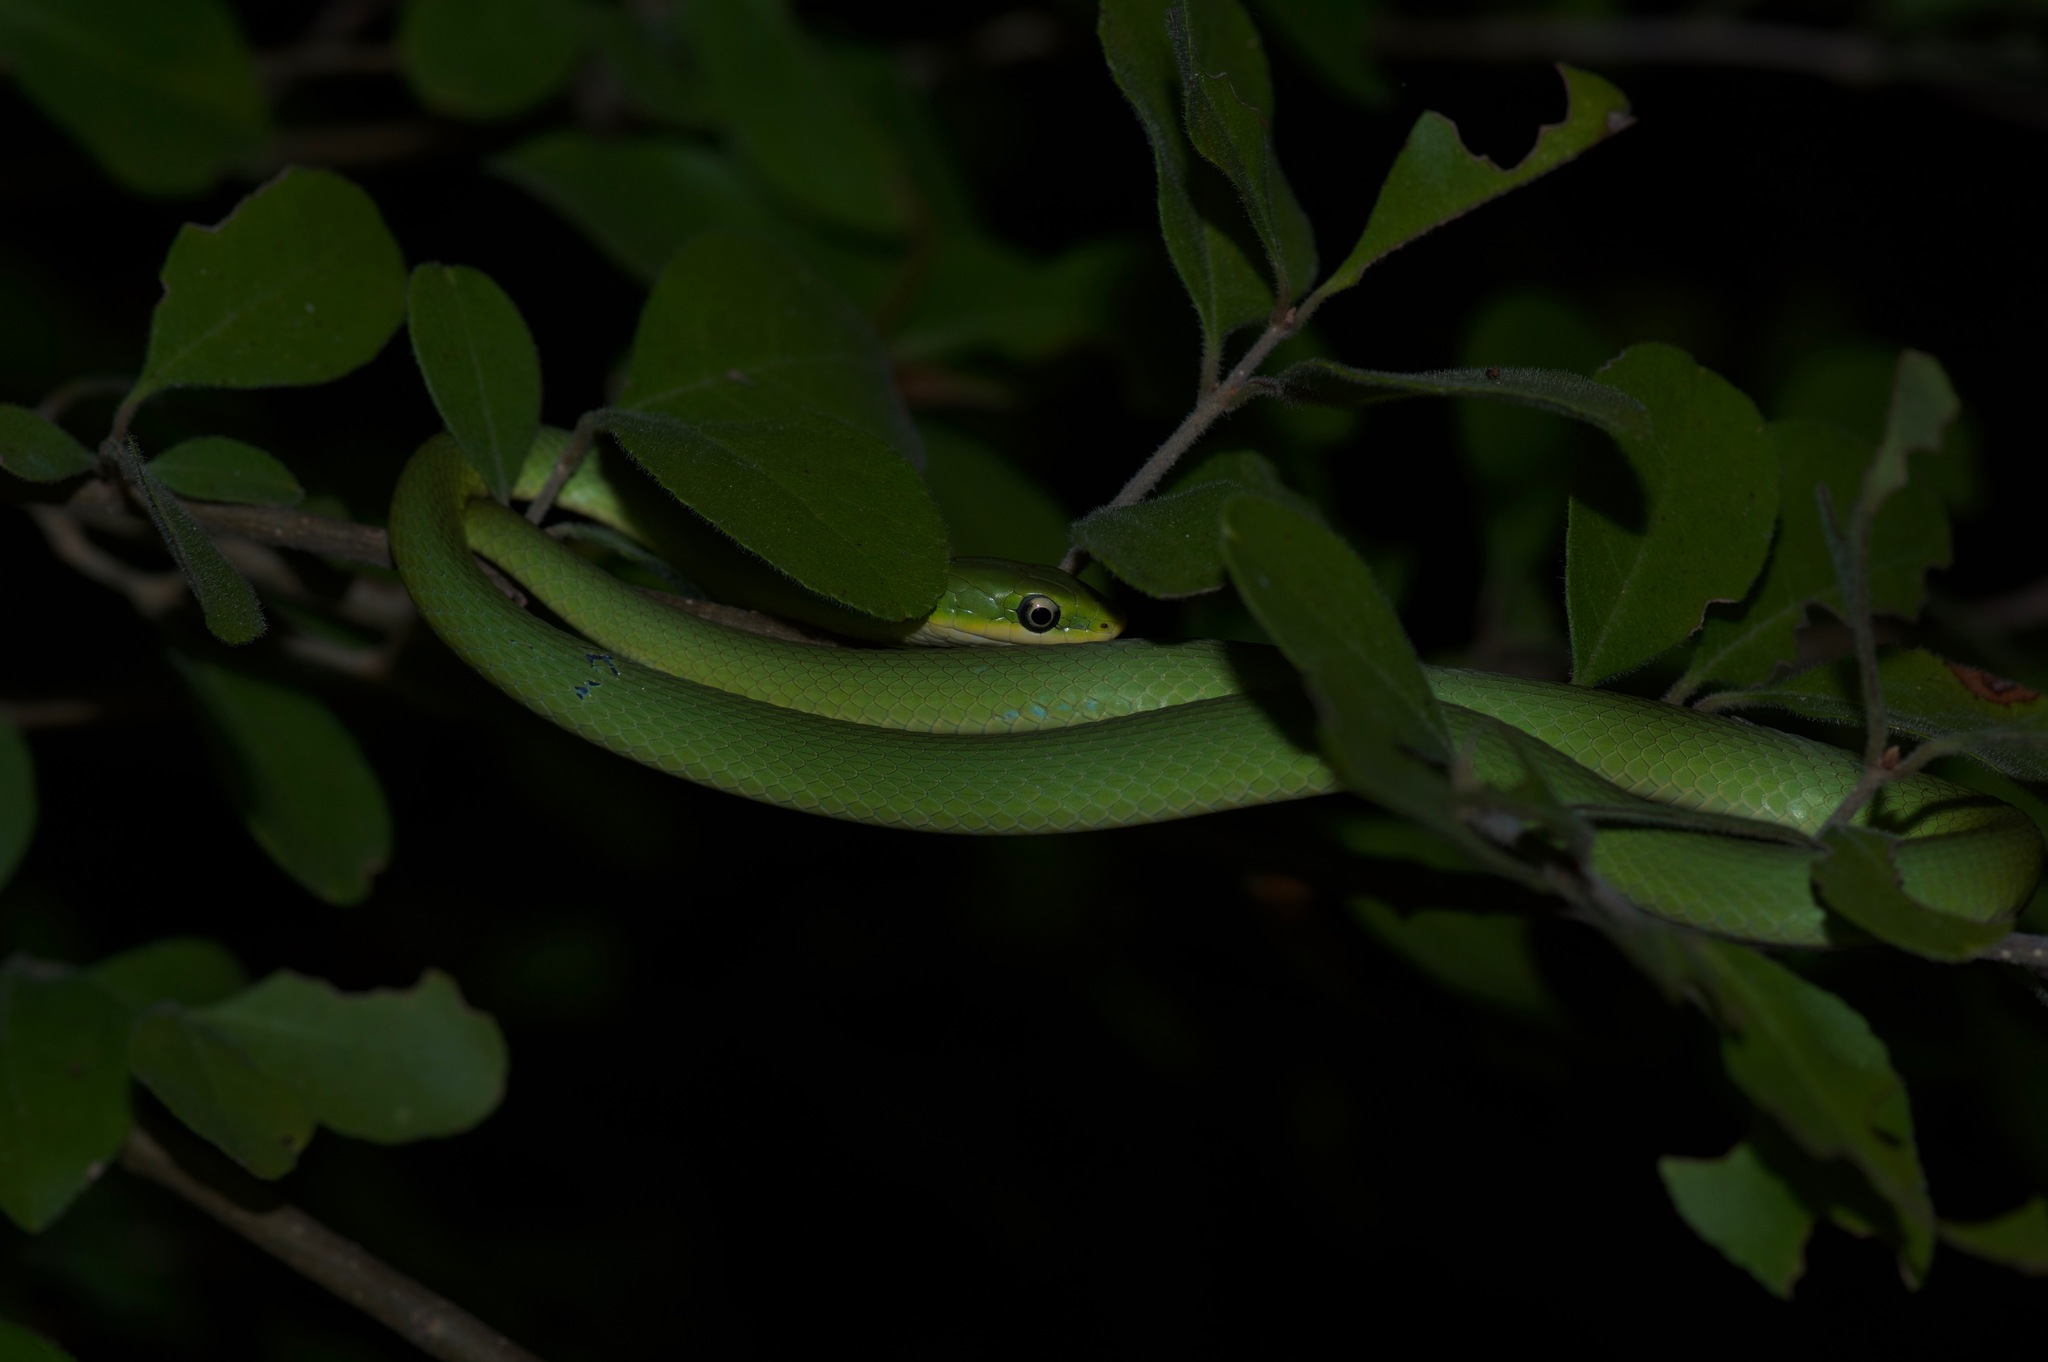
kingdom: Animalia
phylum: Chordata
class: Squamata
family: Colubridae
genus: Opheodrys
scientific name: Opheodrys aestivus
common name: Rough greensnake
